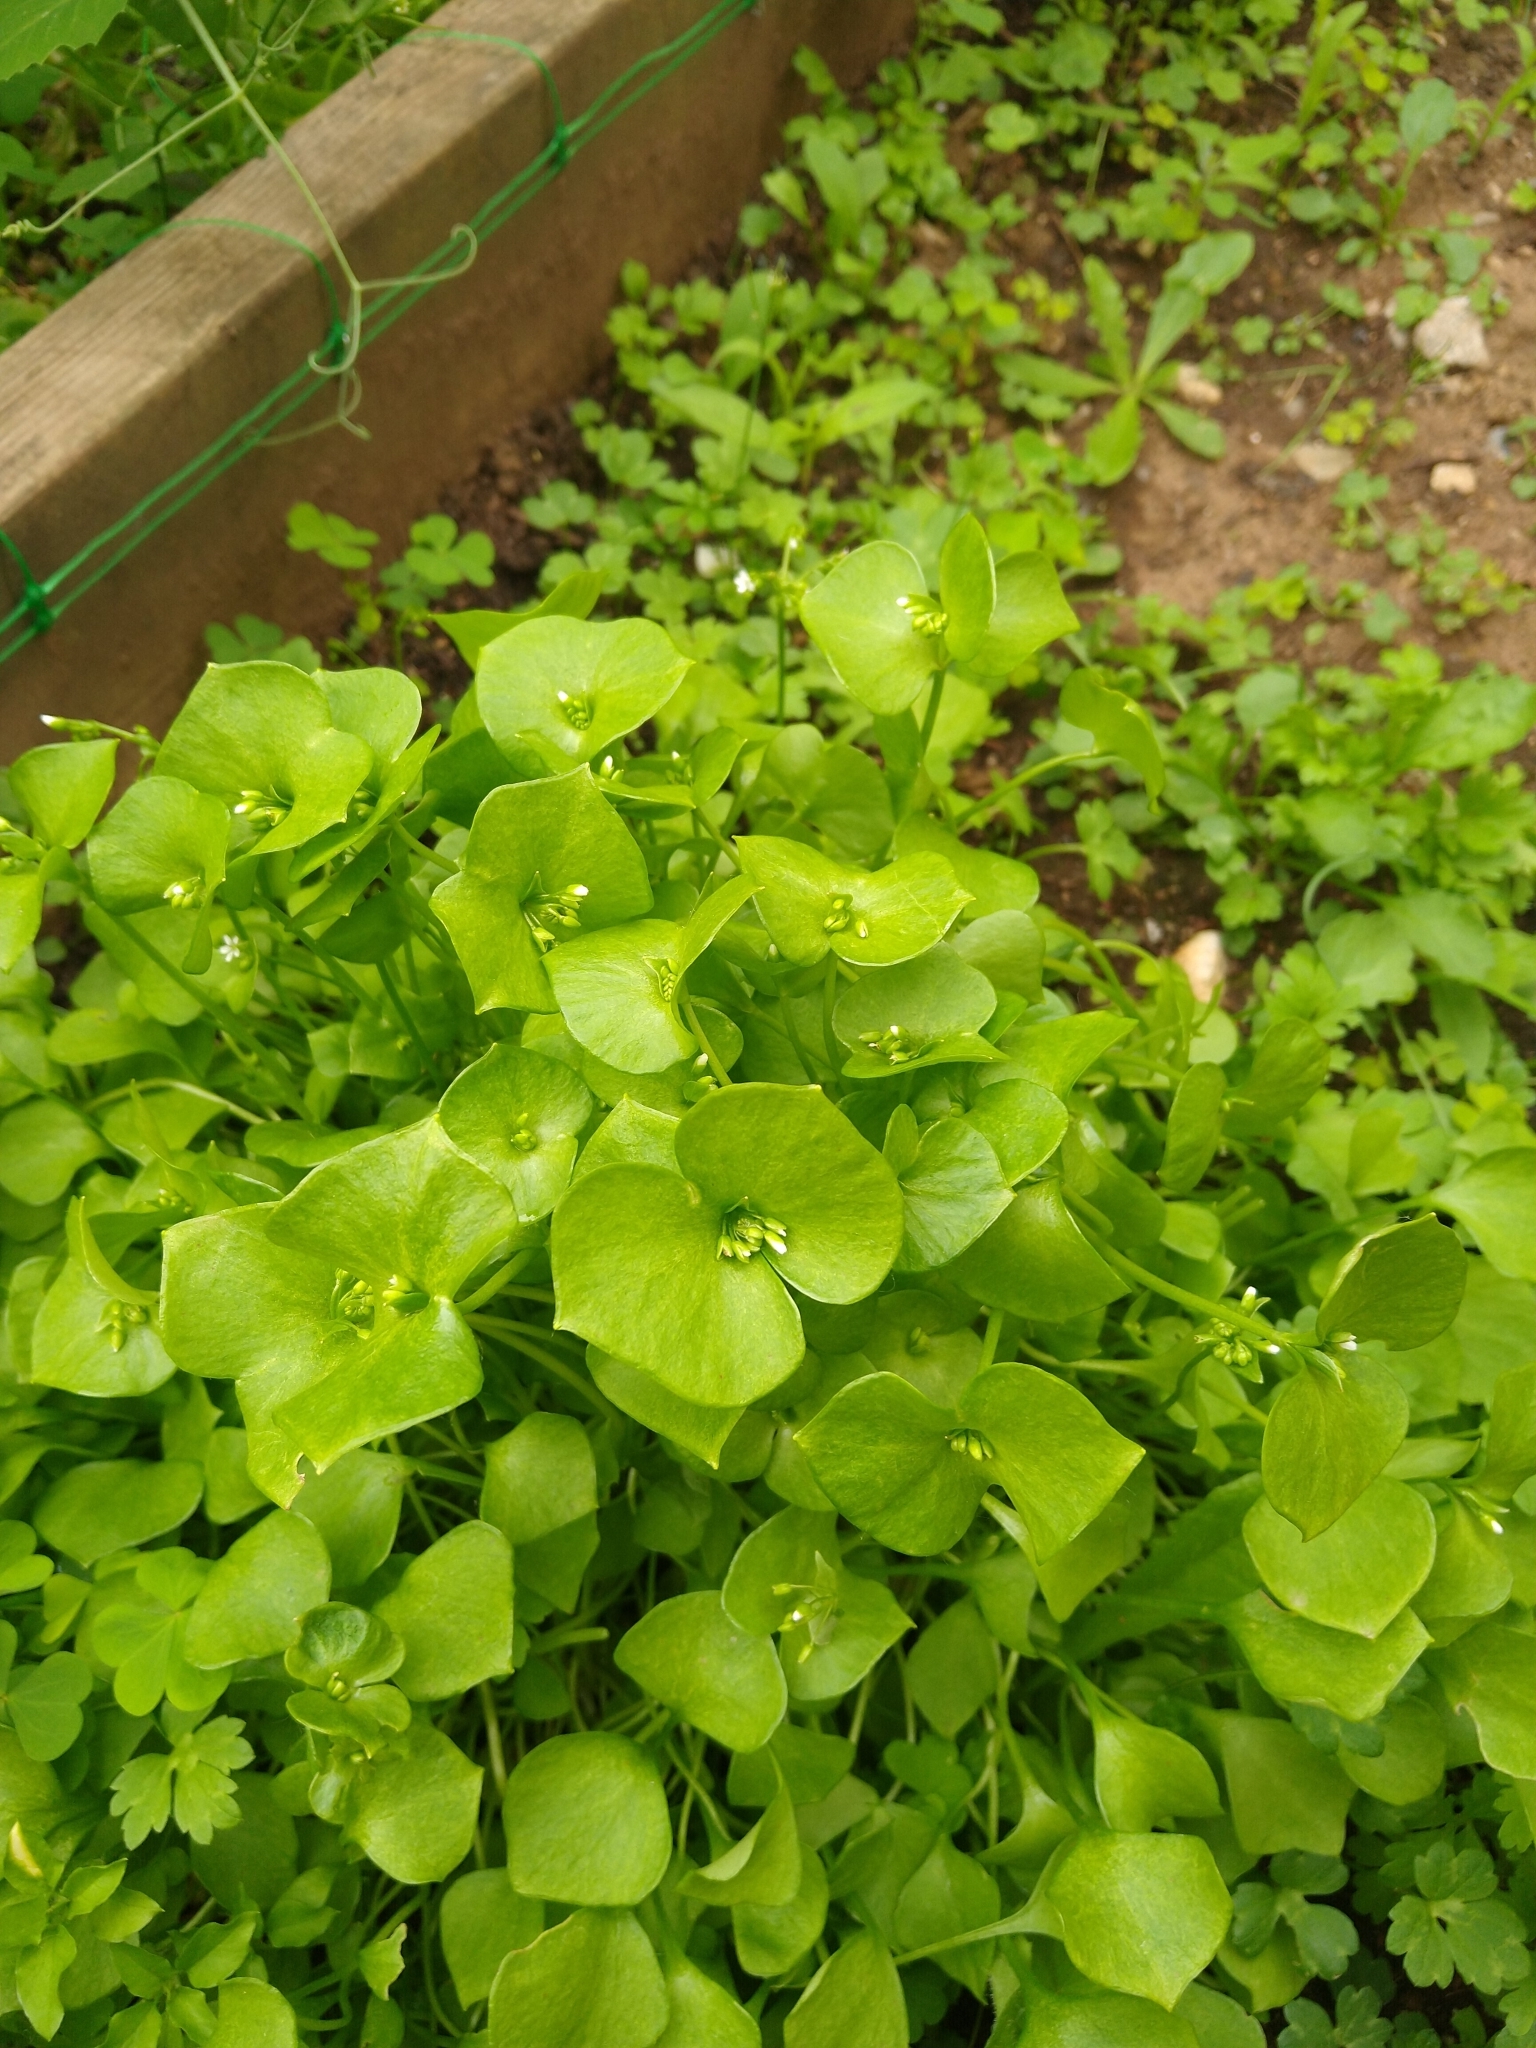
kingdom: Plantae
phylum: Tracheophyta
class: Magnoliopsida
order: Caryophyllales
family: Montiaceae
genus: Claytonia
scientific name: Claytonia perfoliata
